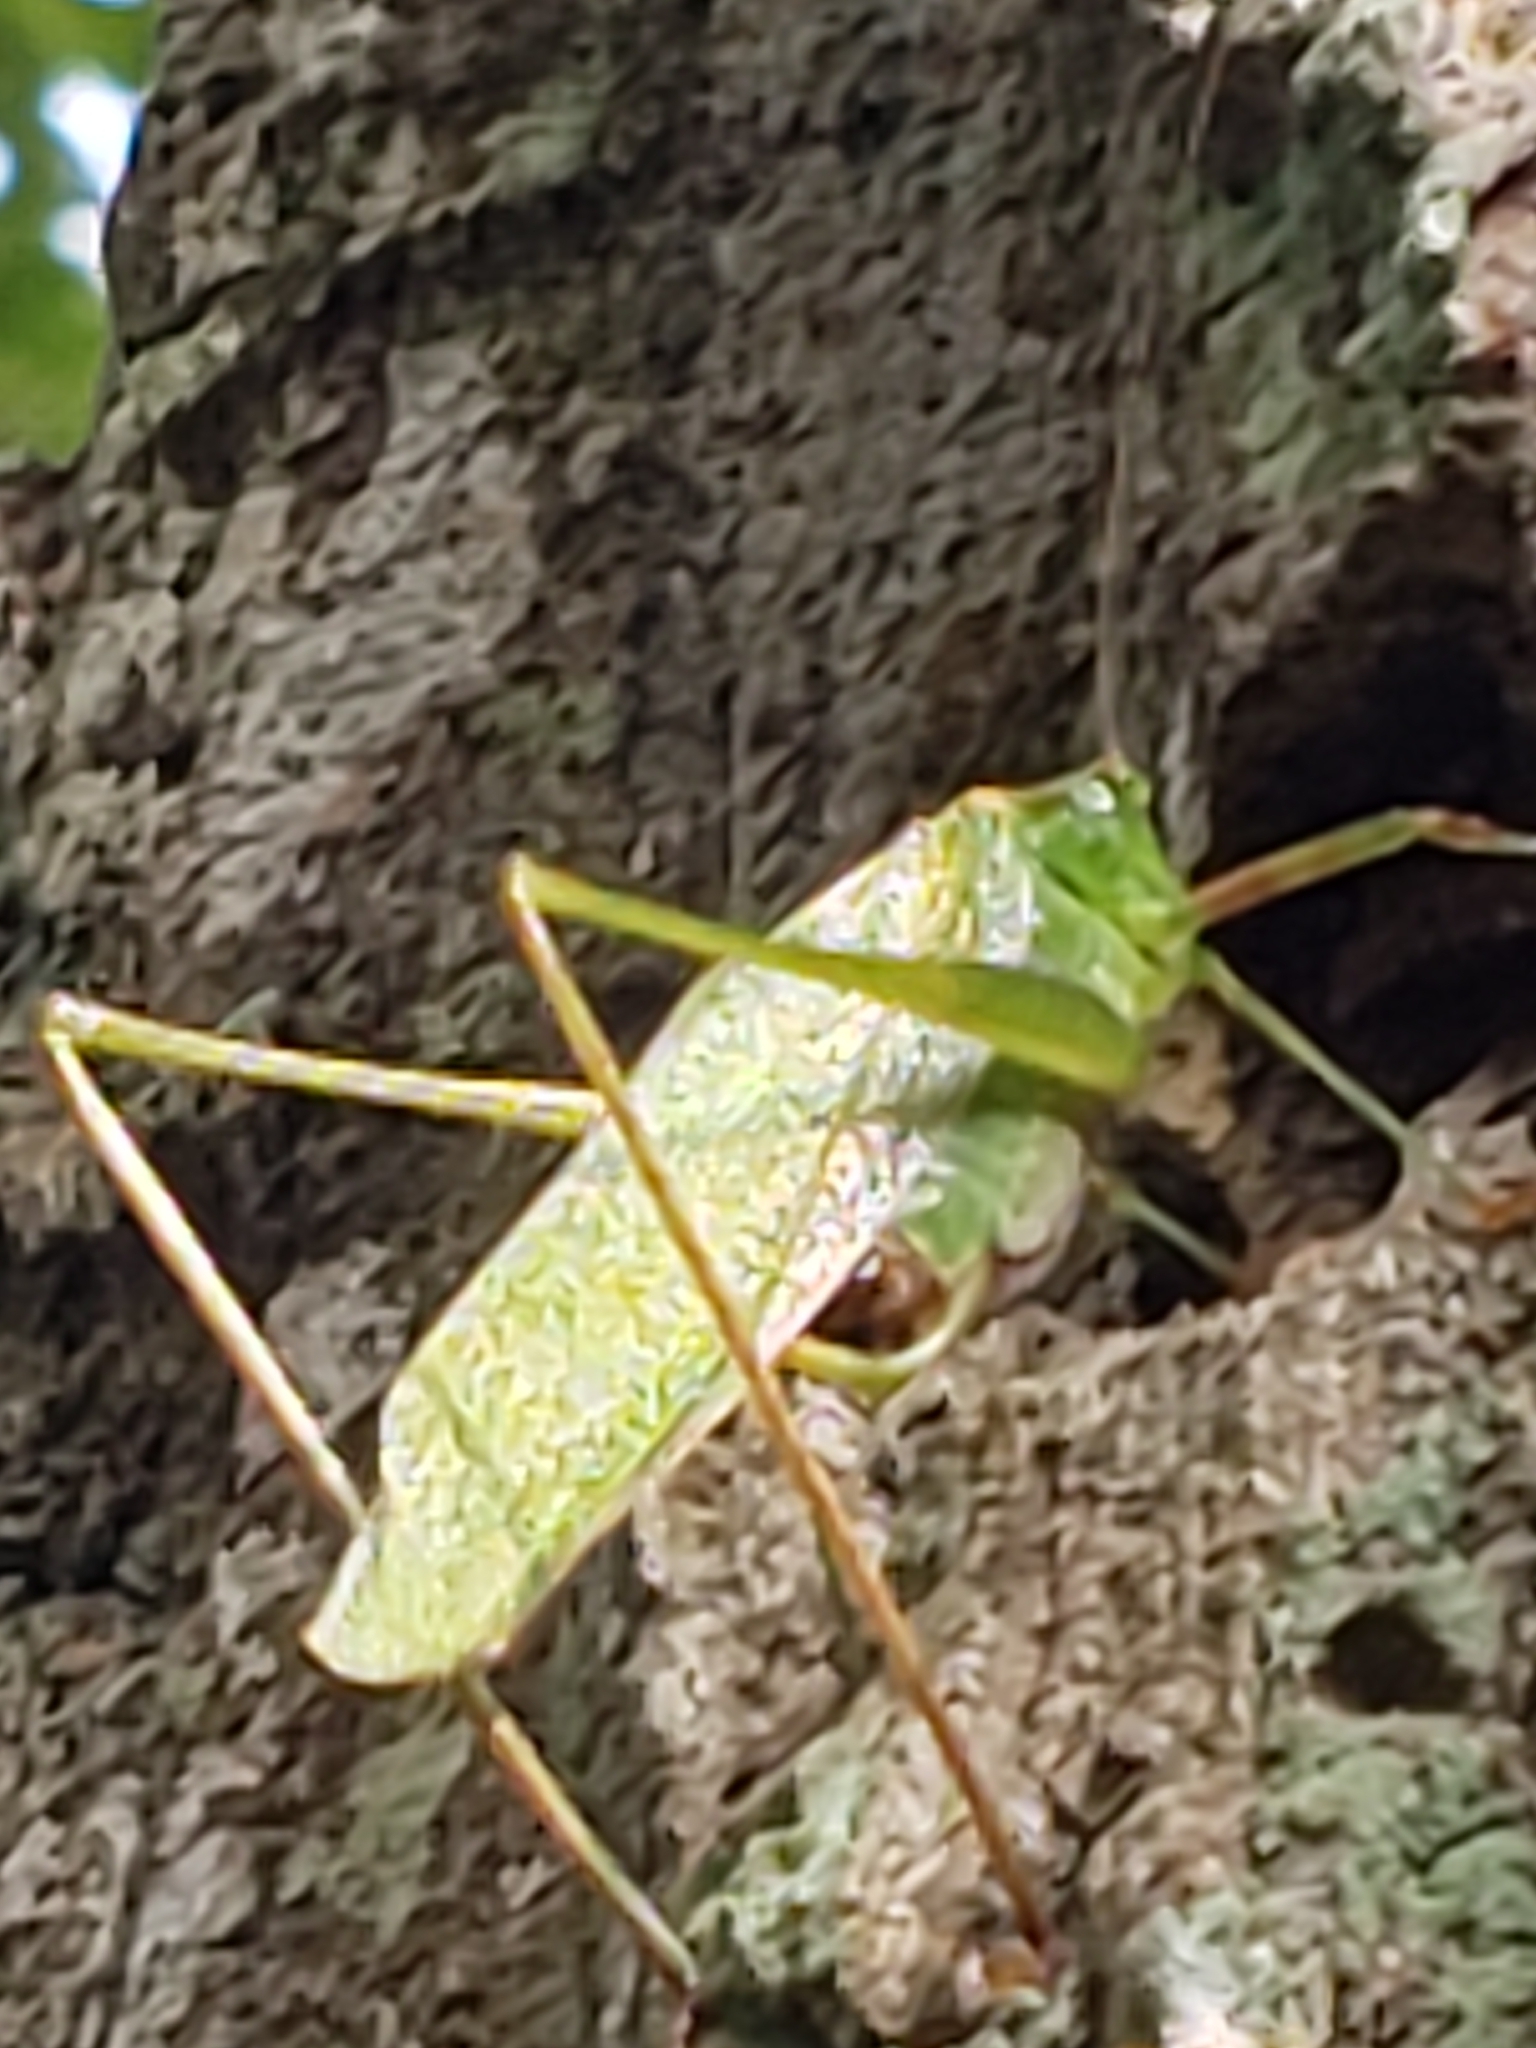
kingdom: Animalia
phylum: Arthropoda
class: Insecta
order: Orthoptera
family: Tettigoniidae
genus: Scudderia
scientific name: Scudderia furcata
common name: Fork-tailed bush katydid
